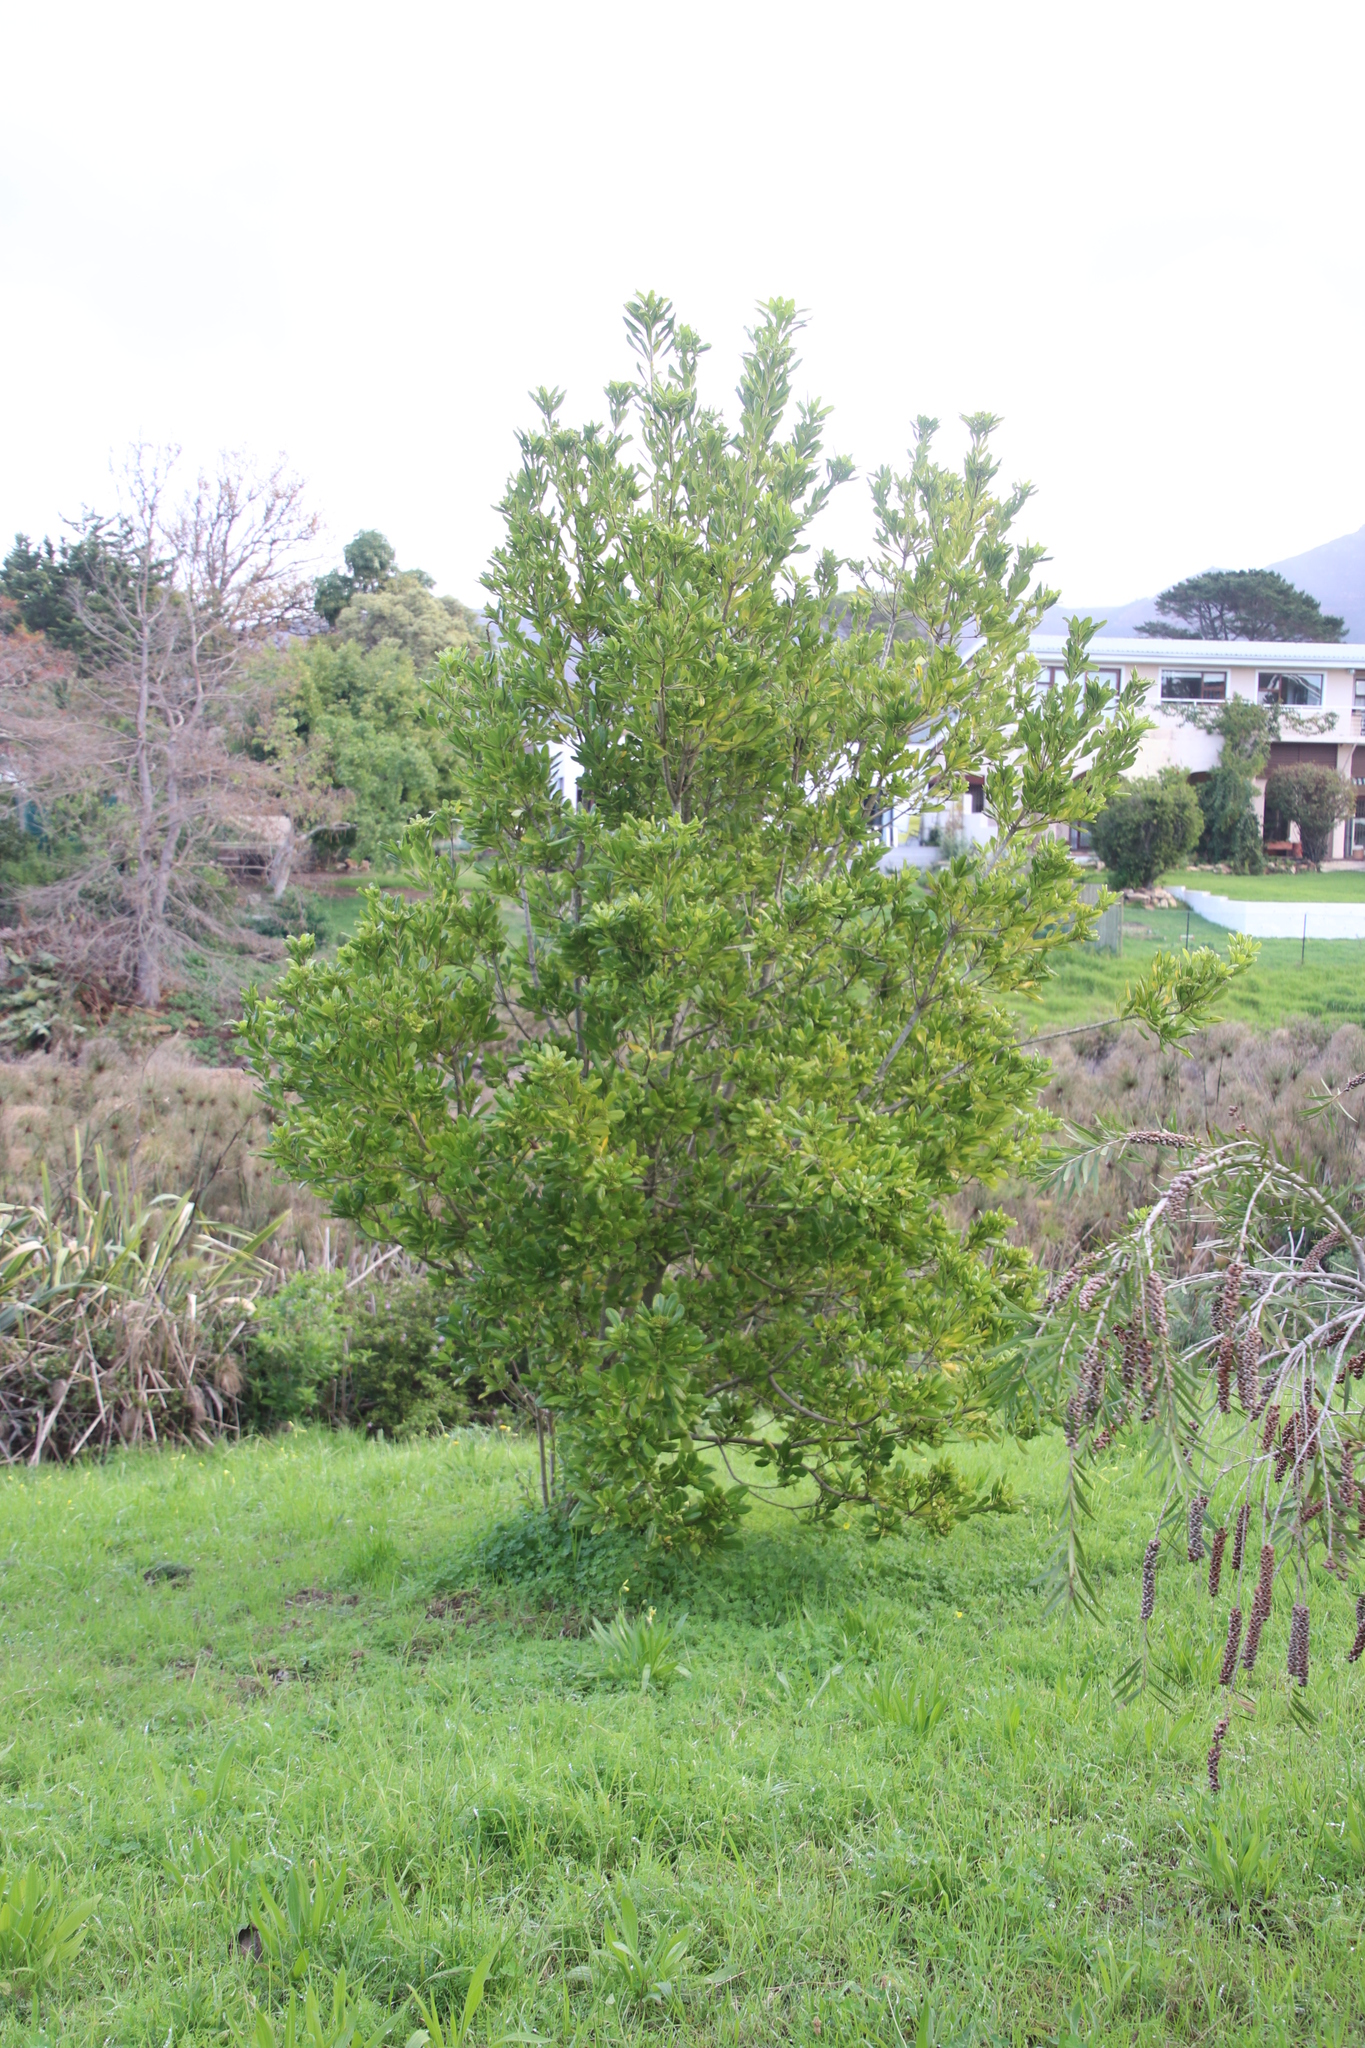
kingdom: Plantae
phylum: Tracheophyta
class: Magnoliopsida
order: Apiales
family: Pittosporaceae
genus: Pittosporum
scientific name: Pittosporum viridiflorum
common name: Cape cheesewood
